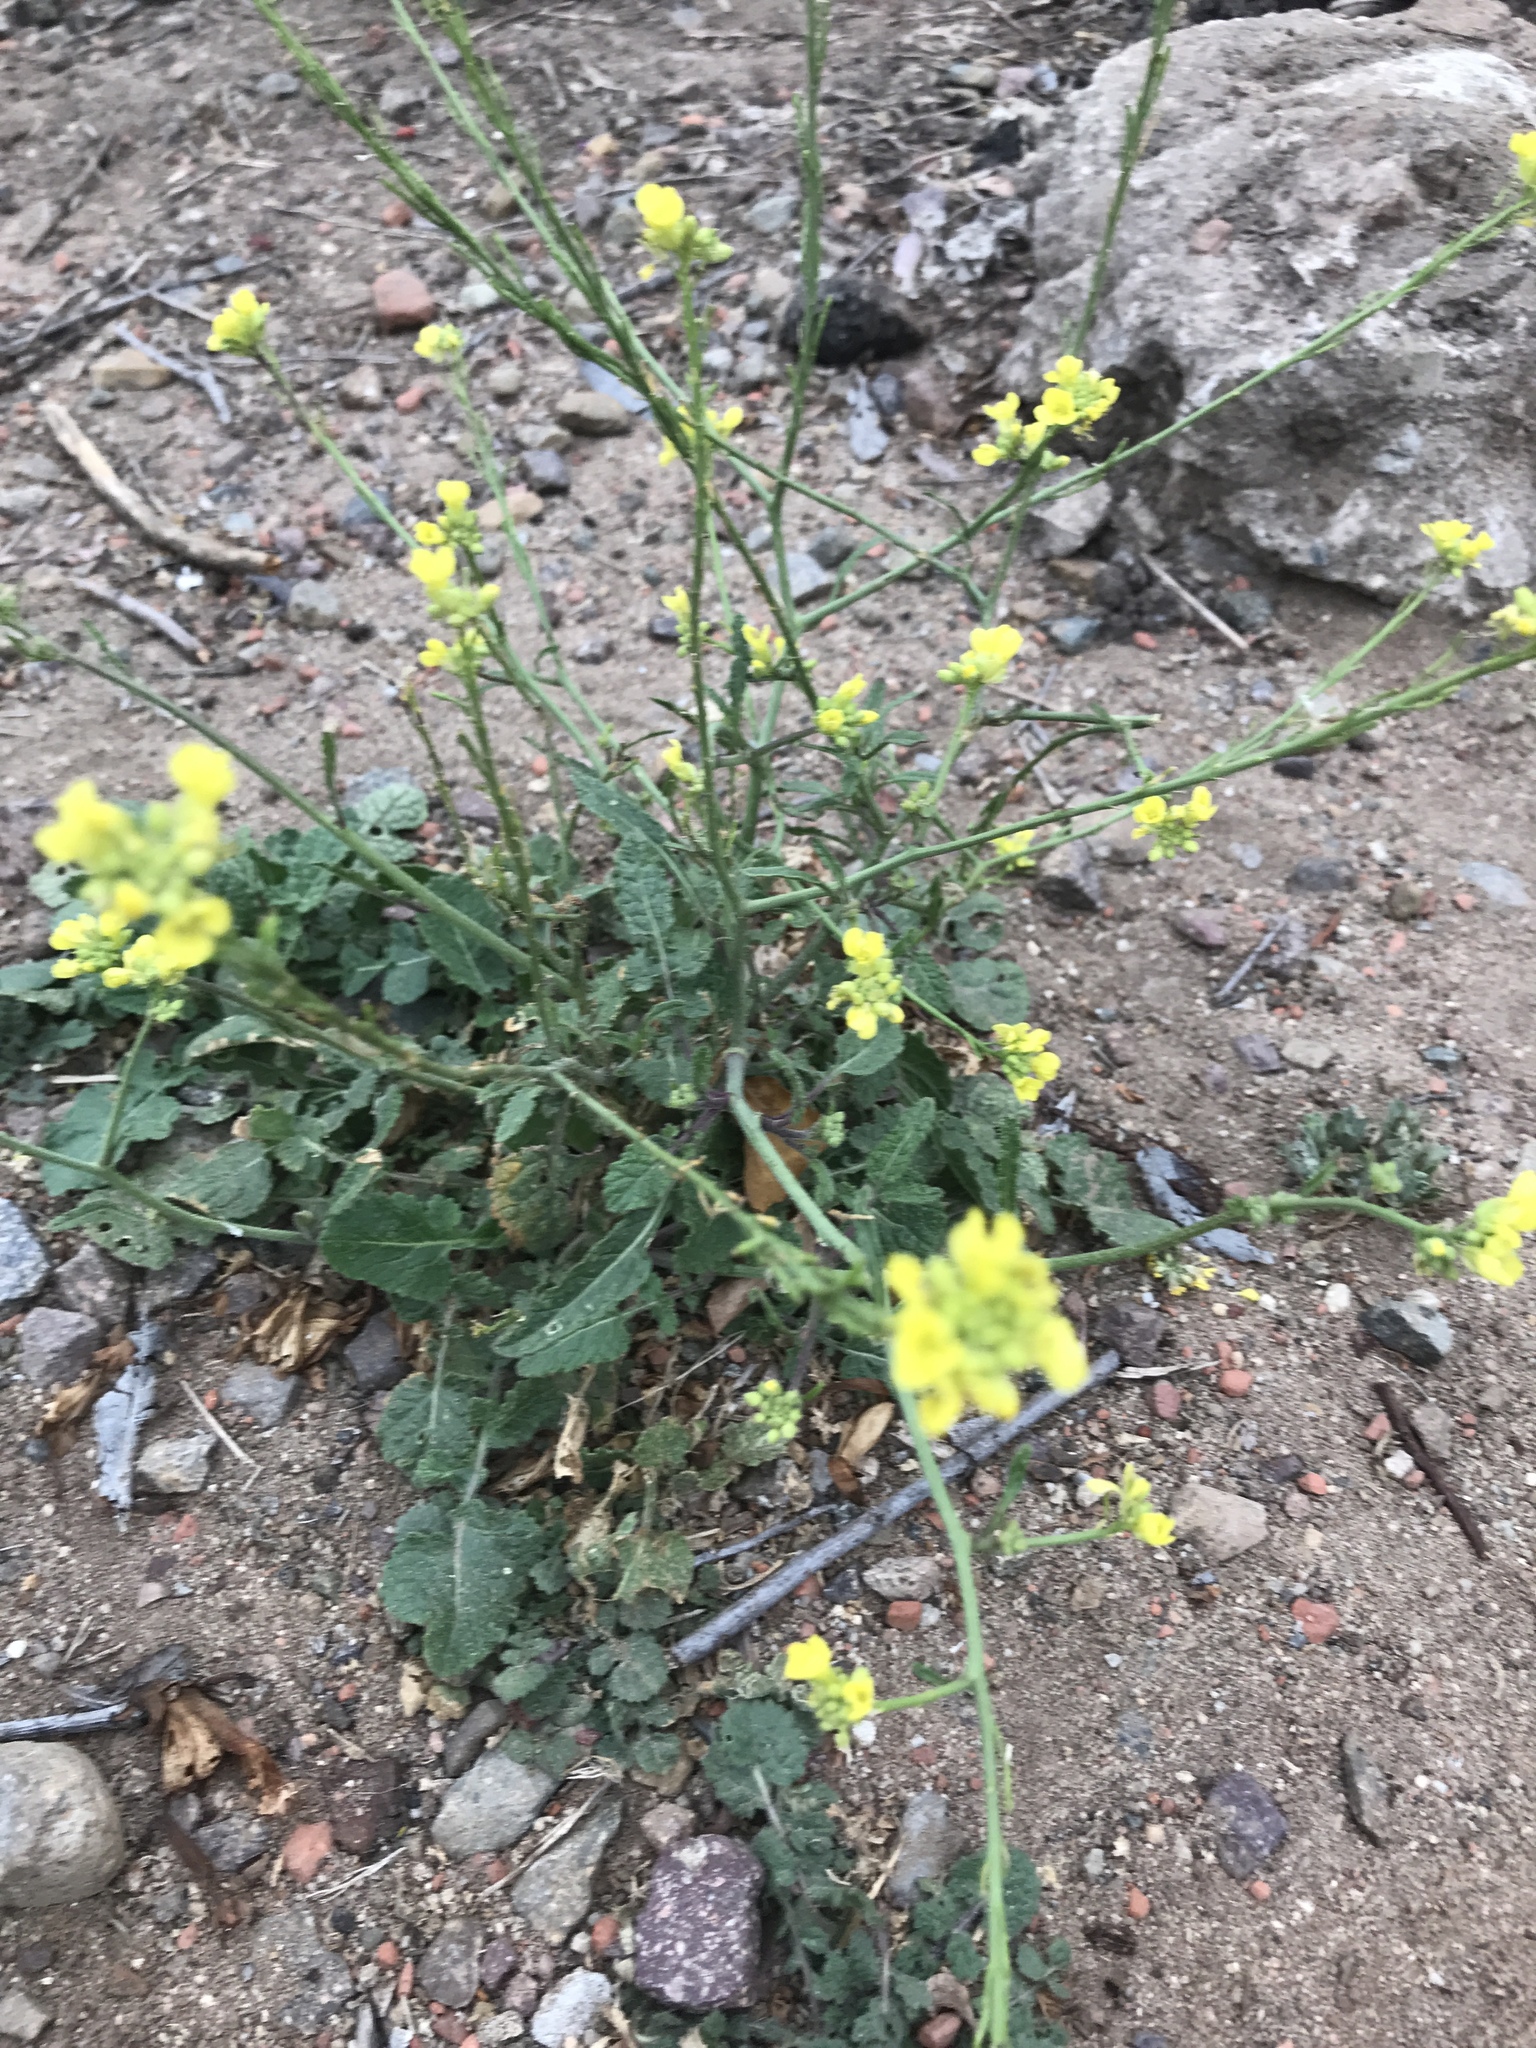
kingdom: Plantae
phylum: Tracheophyta
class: Magnoliopsida
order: Brassicales
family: Brassicaceae
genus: Hirschfeldia
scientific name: Hirschfeldia incana
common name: Hoary mustard
